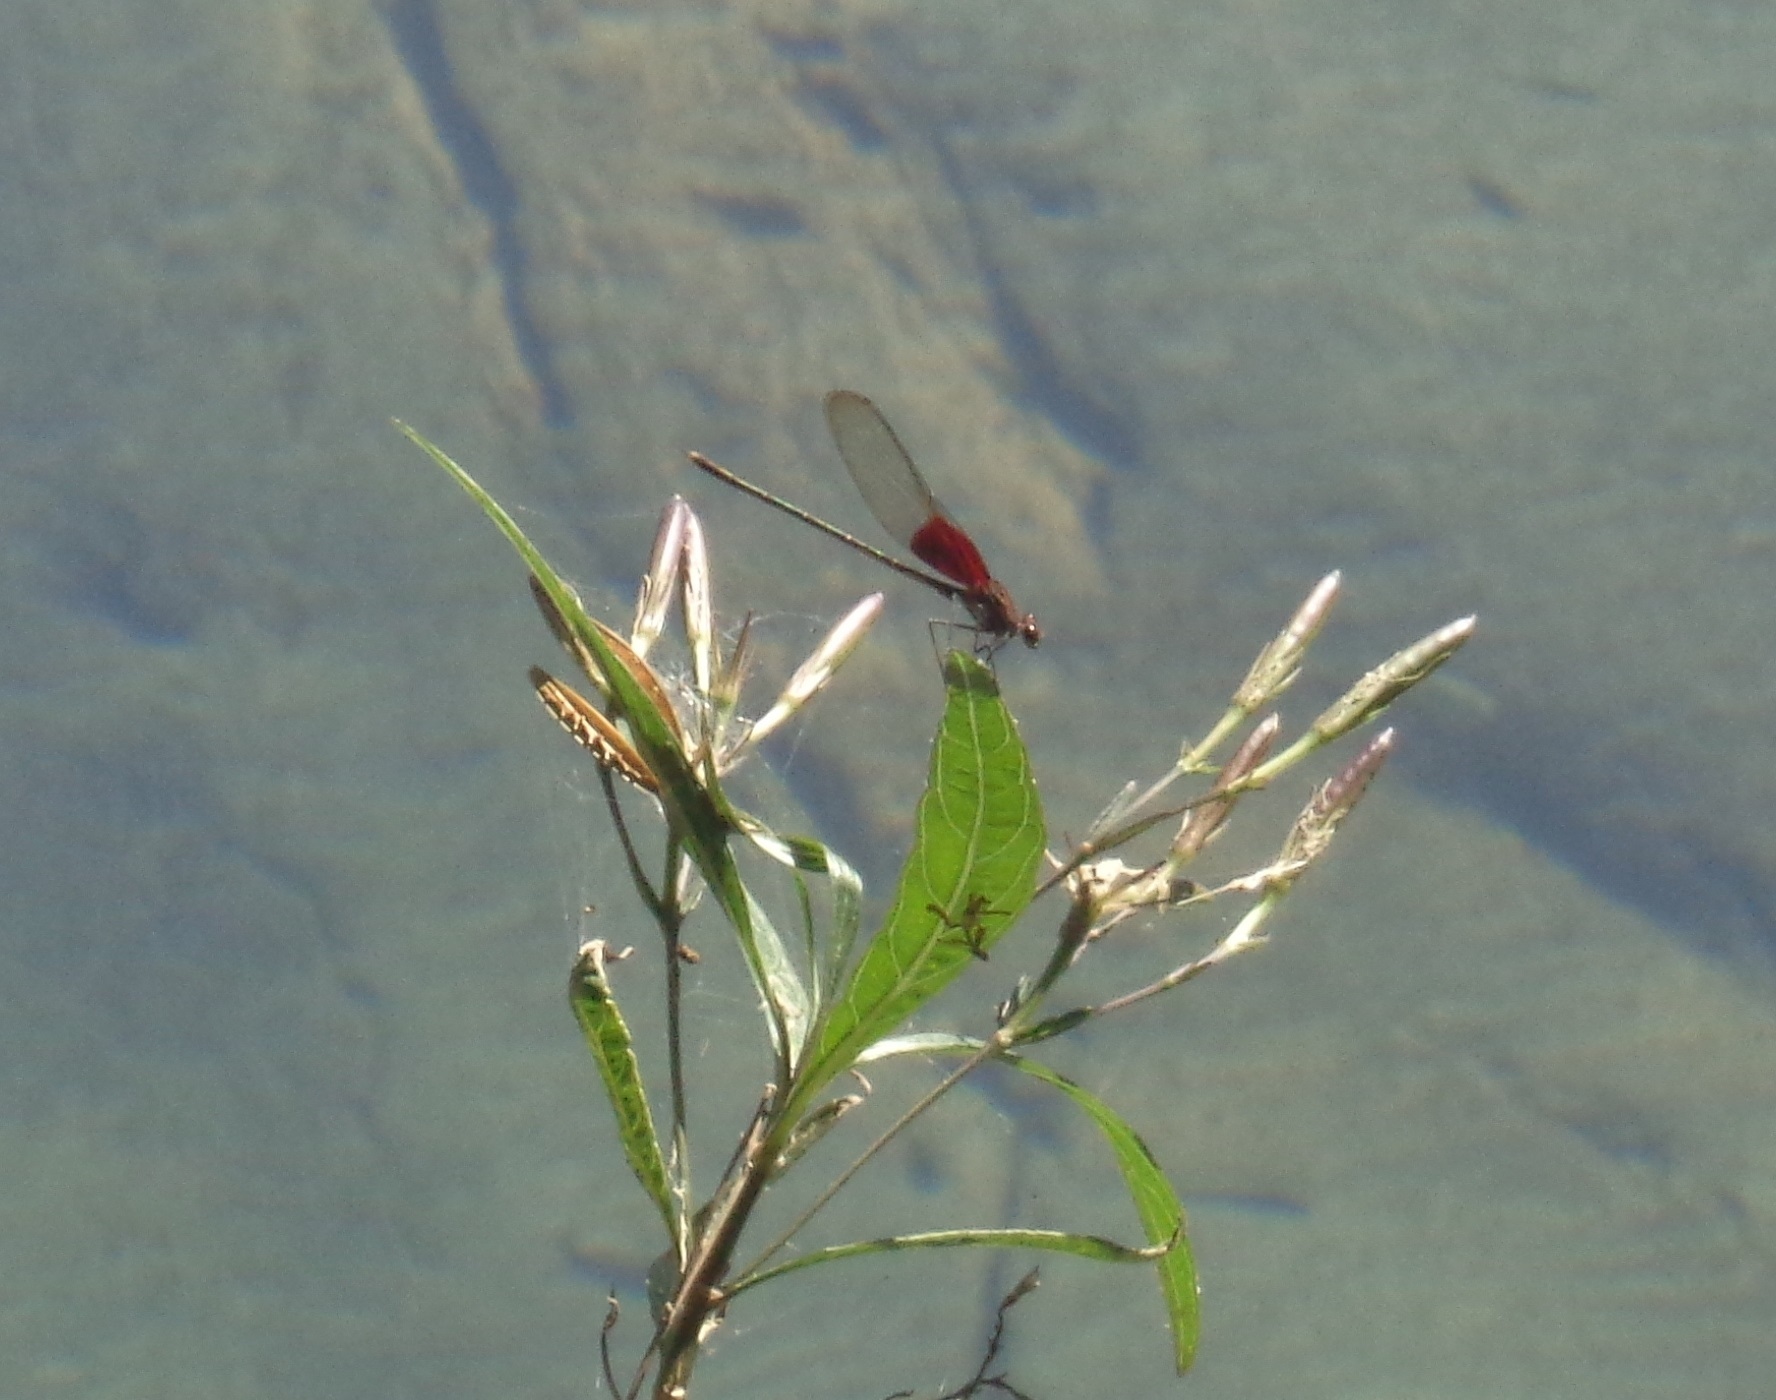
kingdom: Animalia
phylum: Arthropoda
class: Insecta
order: Odonata
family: Calopterygidae
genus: Hetaerina
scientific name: Hetaerina americana
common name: American rubyspot
